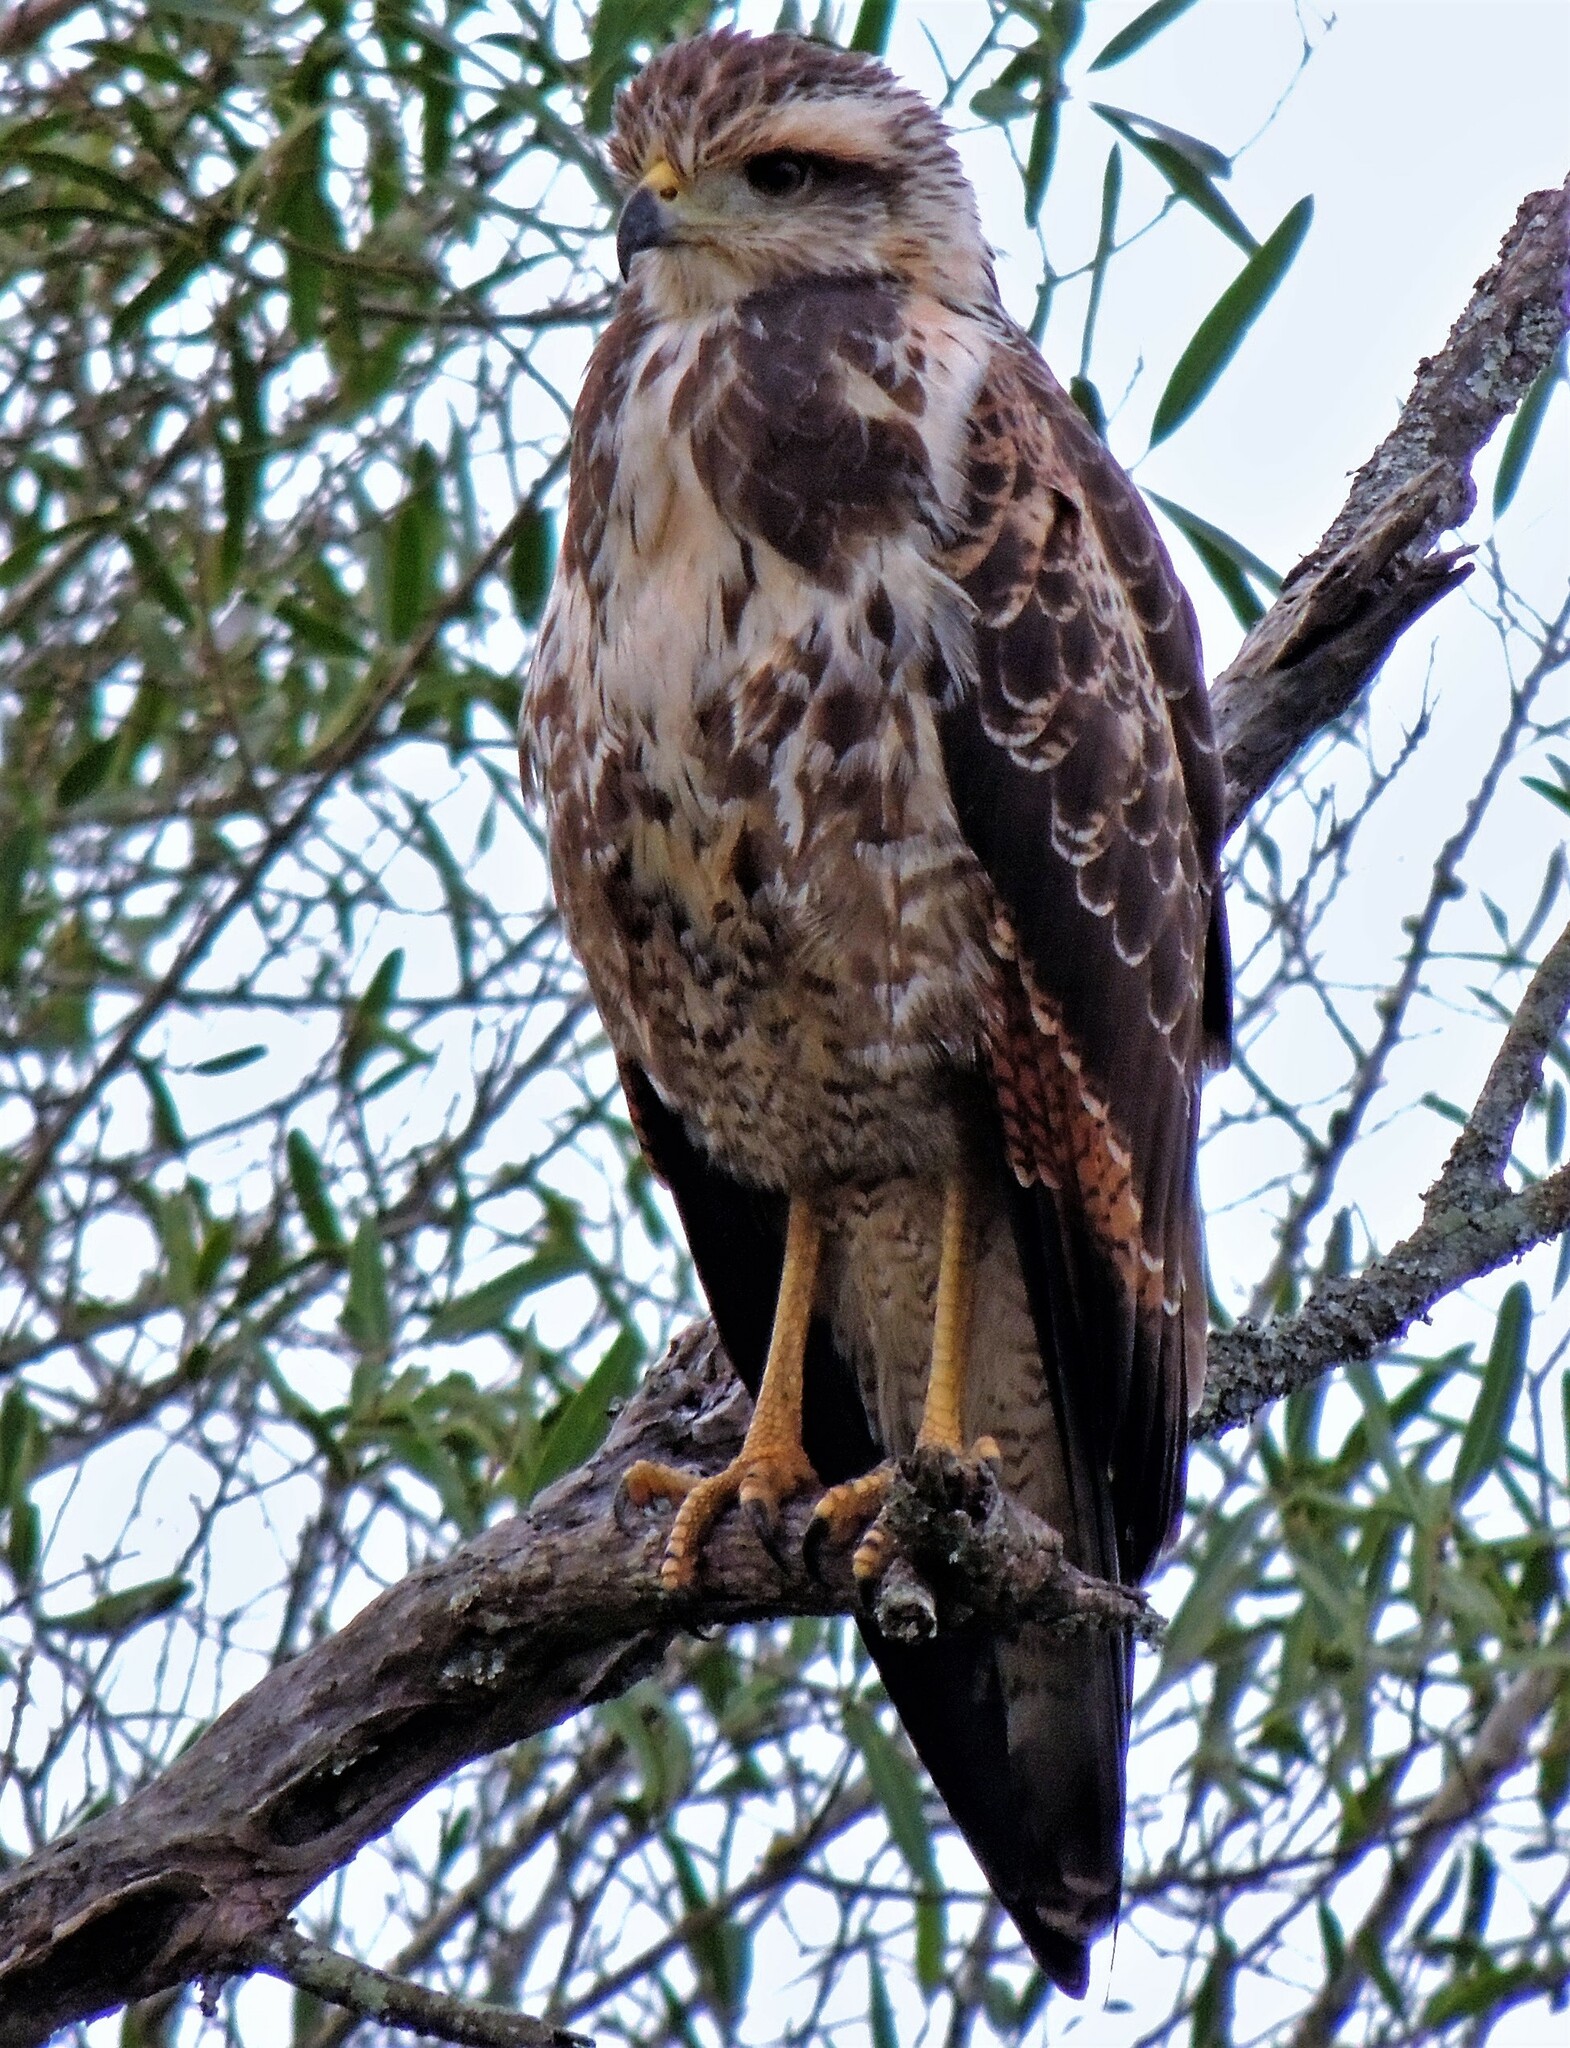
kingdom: Animalia
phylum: Chordata
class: Aves
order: Accipitriformes
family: Accipitridae
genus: Buteogallus
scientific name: Buteogallus meridionalis
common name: Savanna hawk
